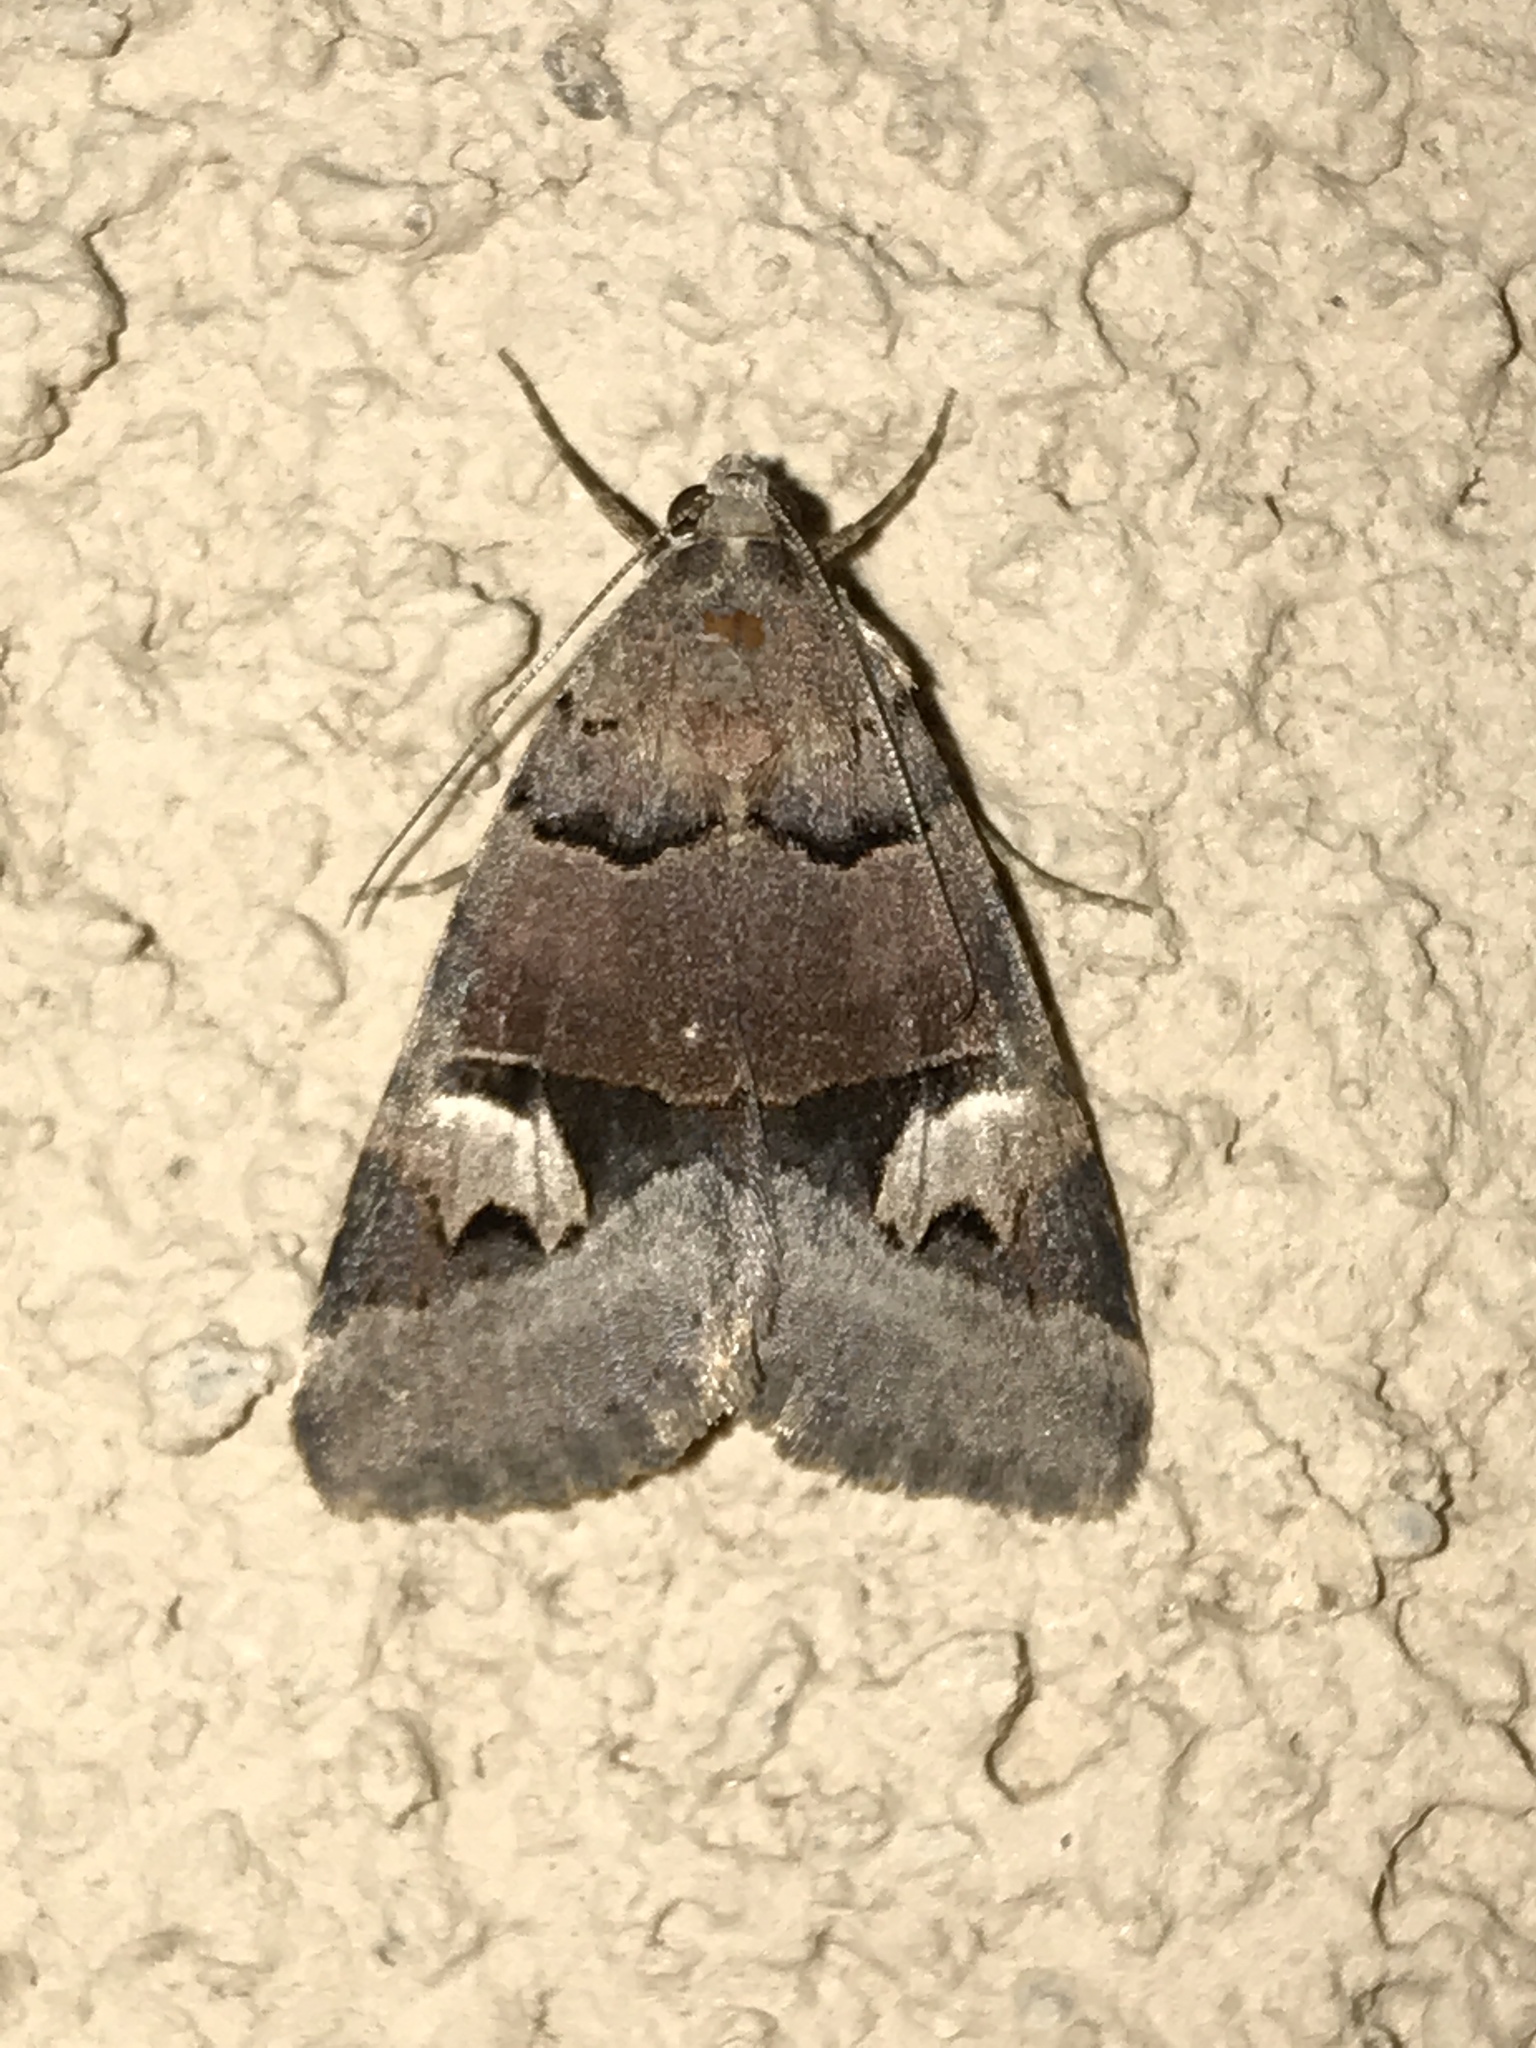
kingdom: Animalia
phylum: Arthropoda
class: Insecta
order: Lepidoptera
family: Erebidae
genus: Drasteria
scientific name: Drasteria perplexa
